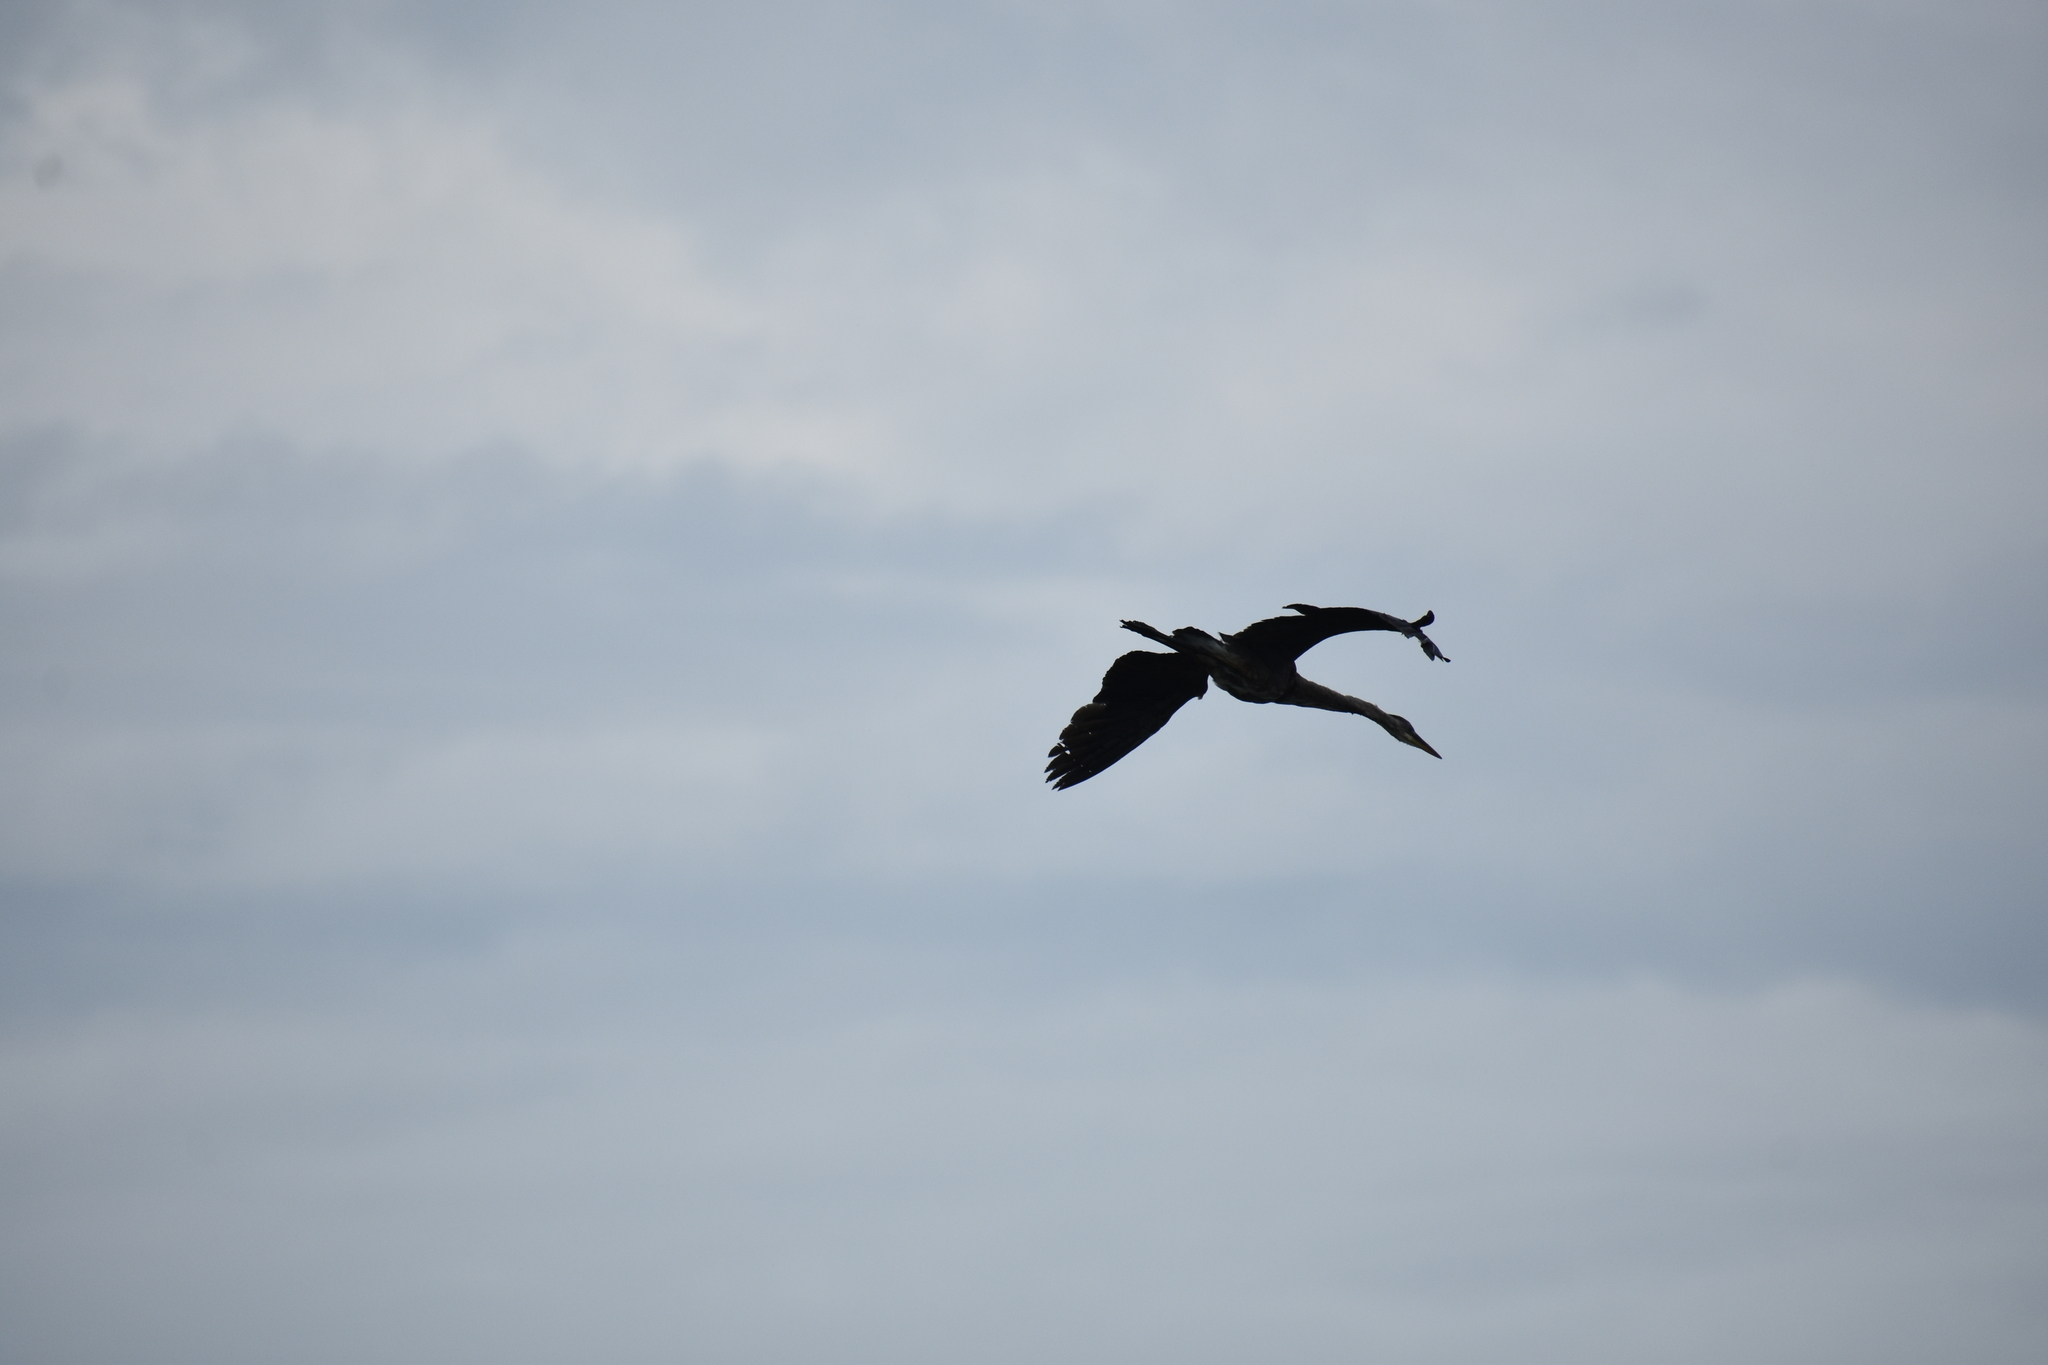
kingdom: Animalia
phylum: Chordata
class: Aves
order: Pelecaniformes
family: Ardeidae
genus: Ardea
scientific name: Ardea herodias
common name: Great blue heron
